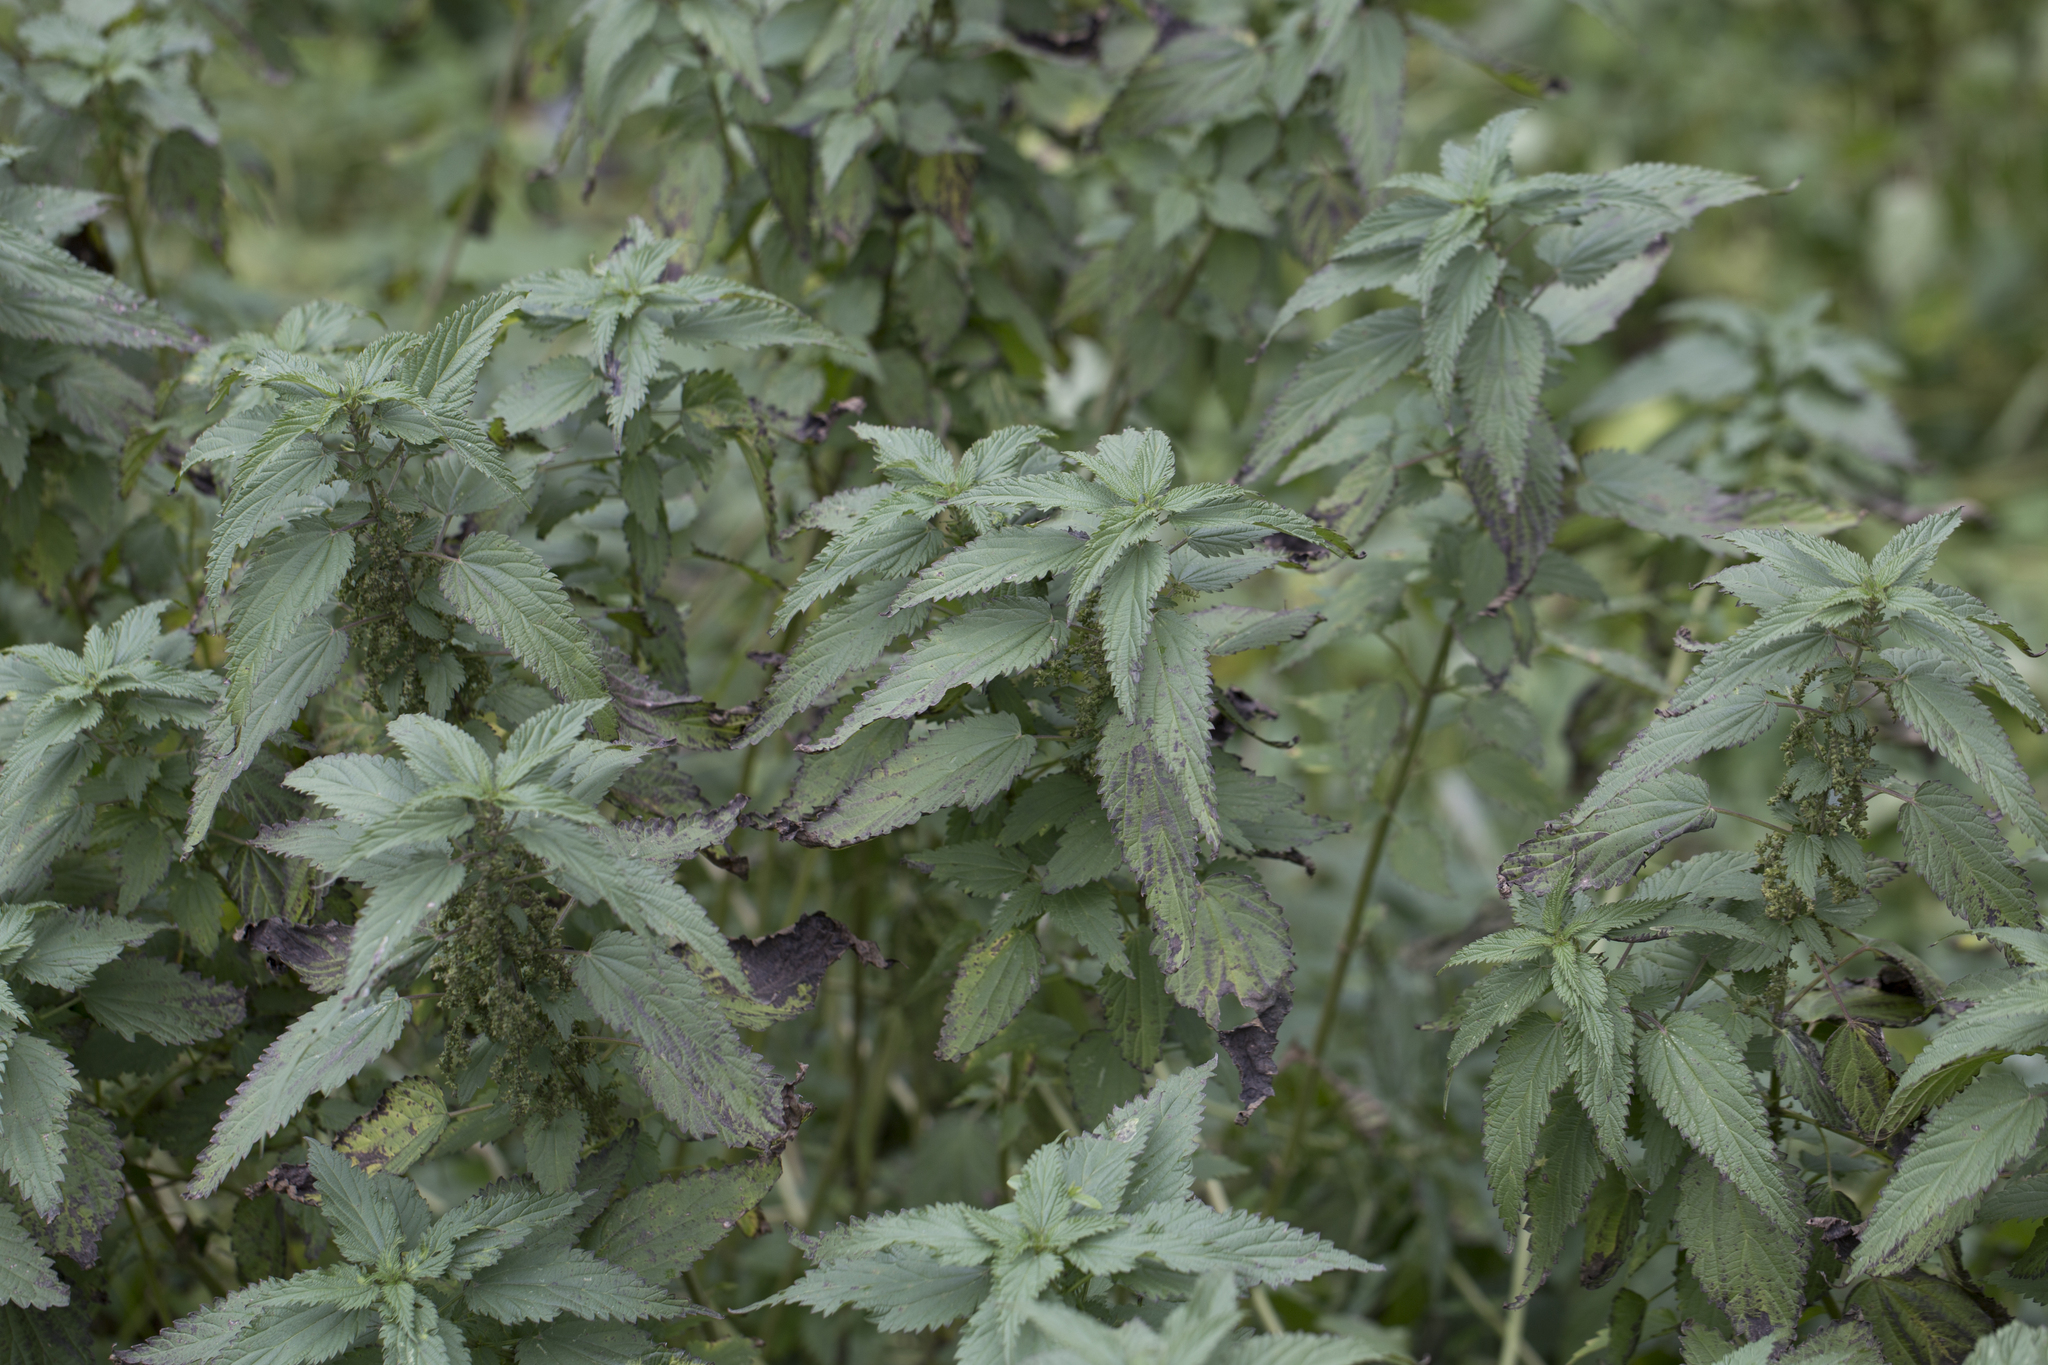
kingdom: Plantae
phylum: Tracheophyta
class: Magnoliopsida
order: Rosales
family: Urticaceae
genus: Urtica
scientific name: Urtica dioica
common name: Common nettle
